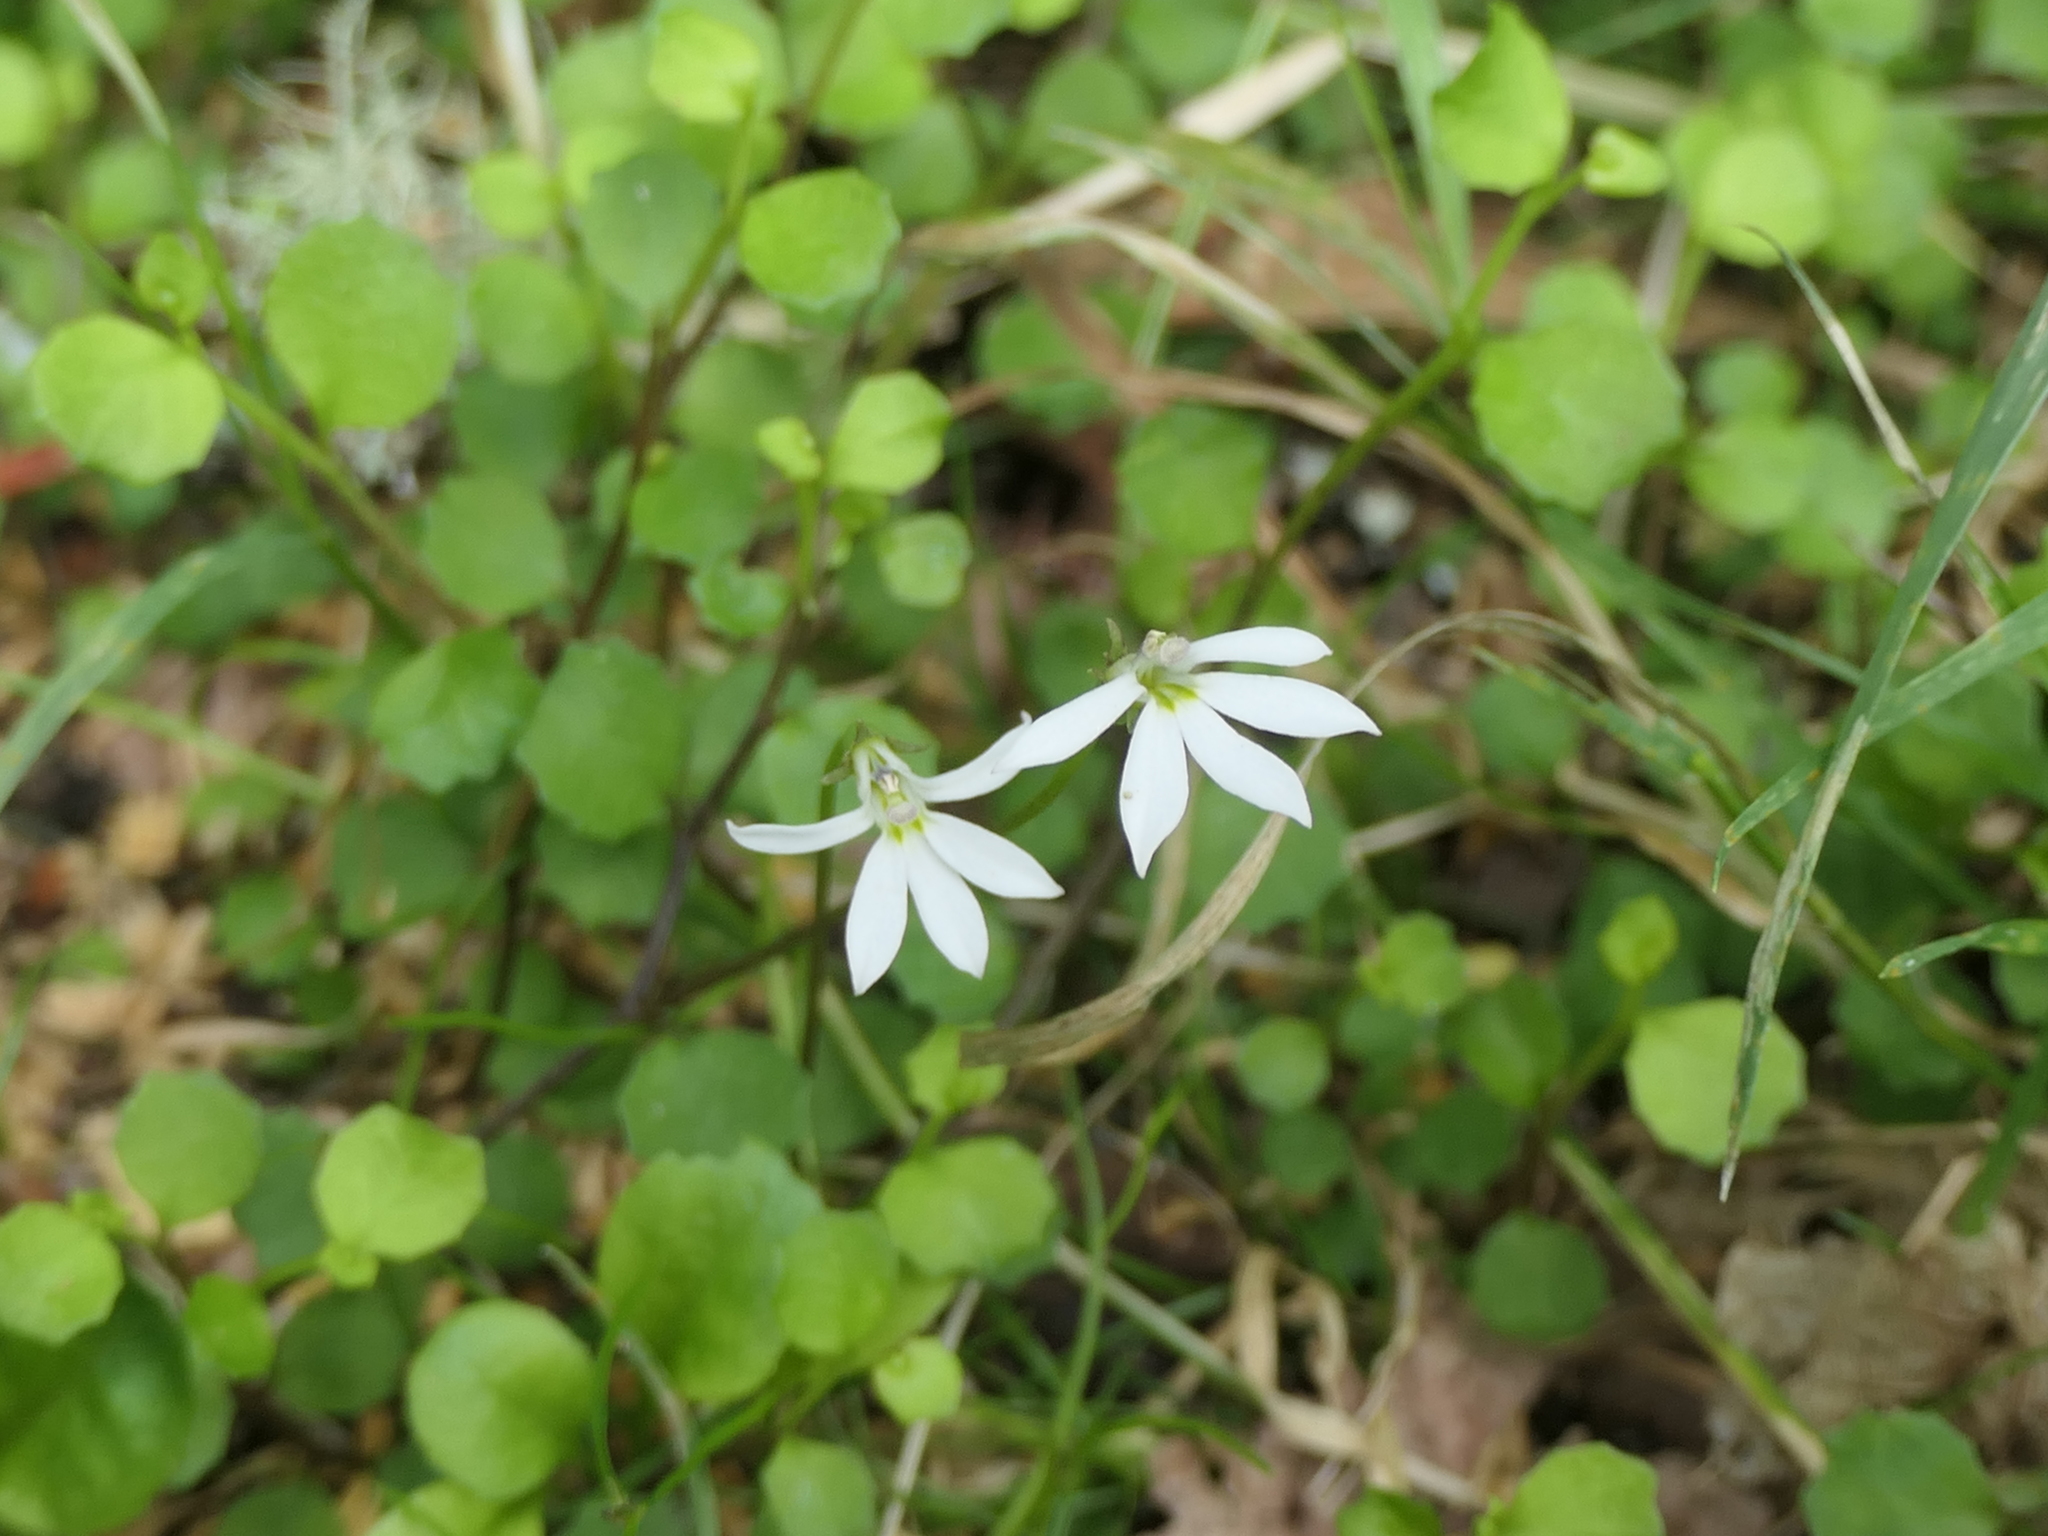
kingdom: Plantae
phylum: Tracheophyta
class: Magnoliopsida
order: Asterales
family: Campanulaceae
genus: Lobelia
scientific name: Lobelia angulata
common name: Lawn lobelia
